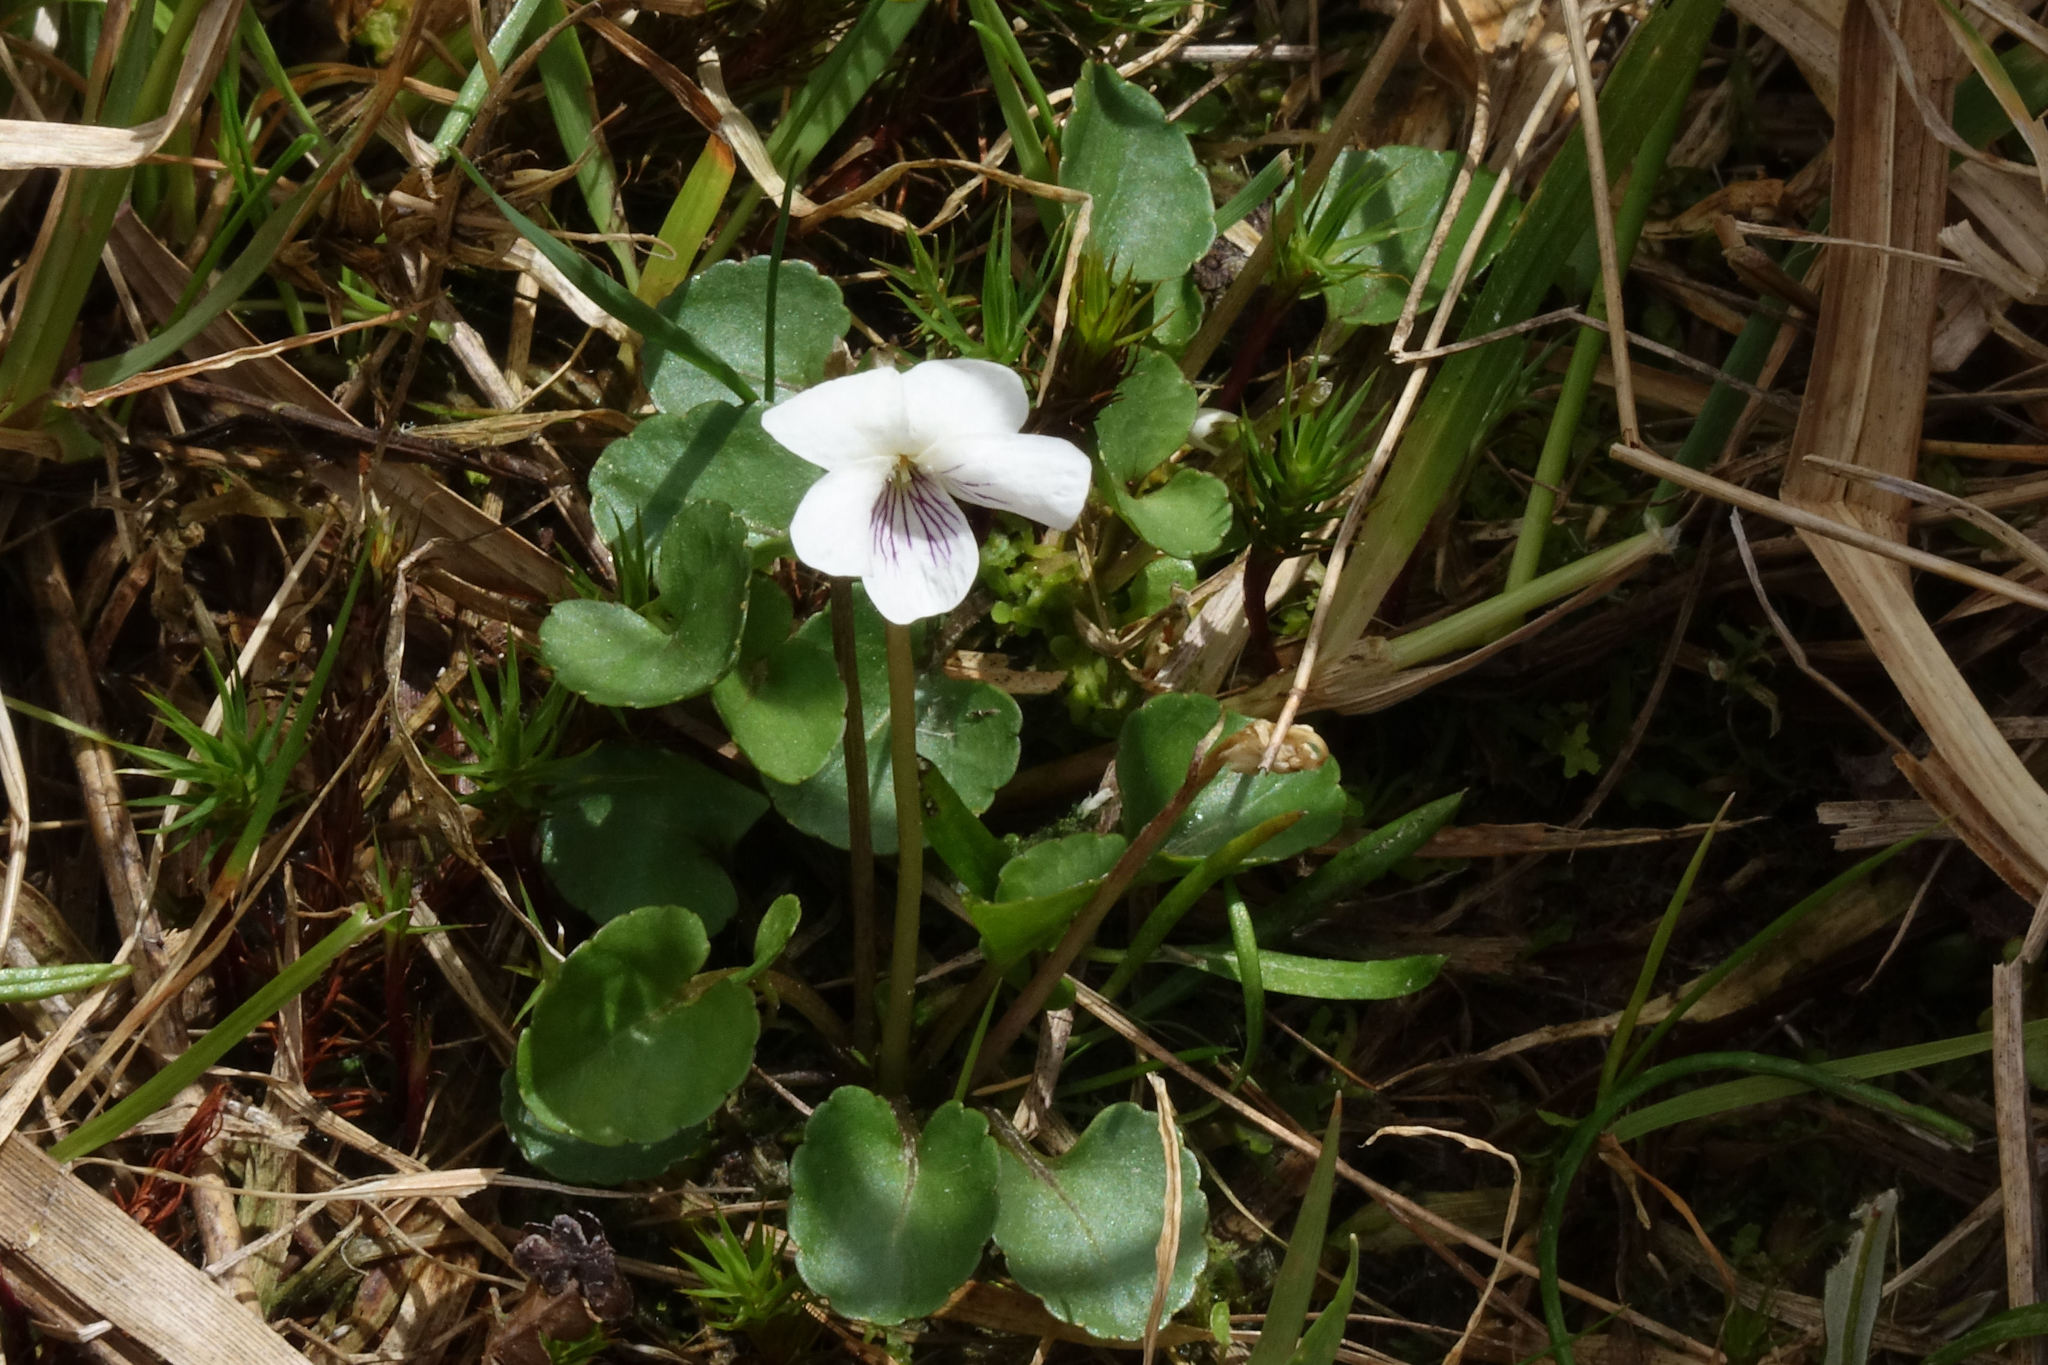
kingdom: Plantae
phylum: Tracheophyta
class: Magnoliopsida
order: Malpighiales
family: Violaceae
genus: Viola
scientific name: Viola cunninghamii
